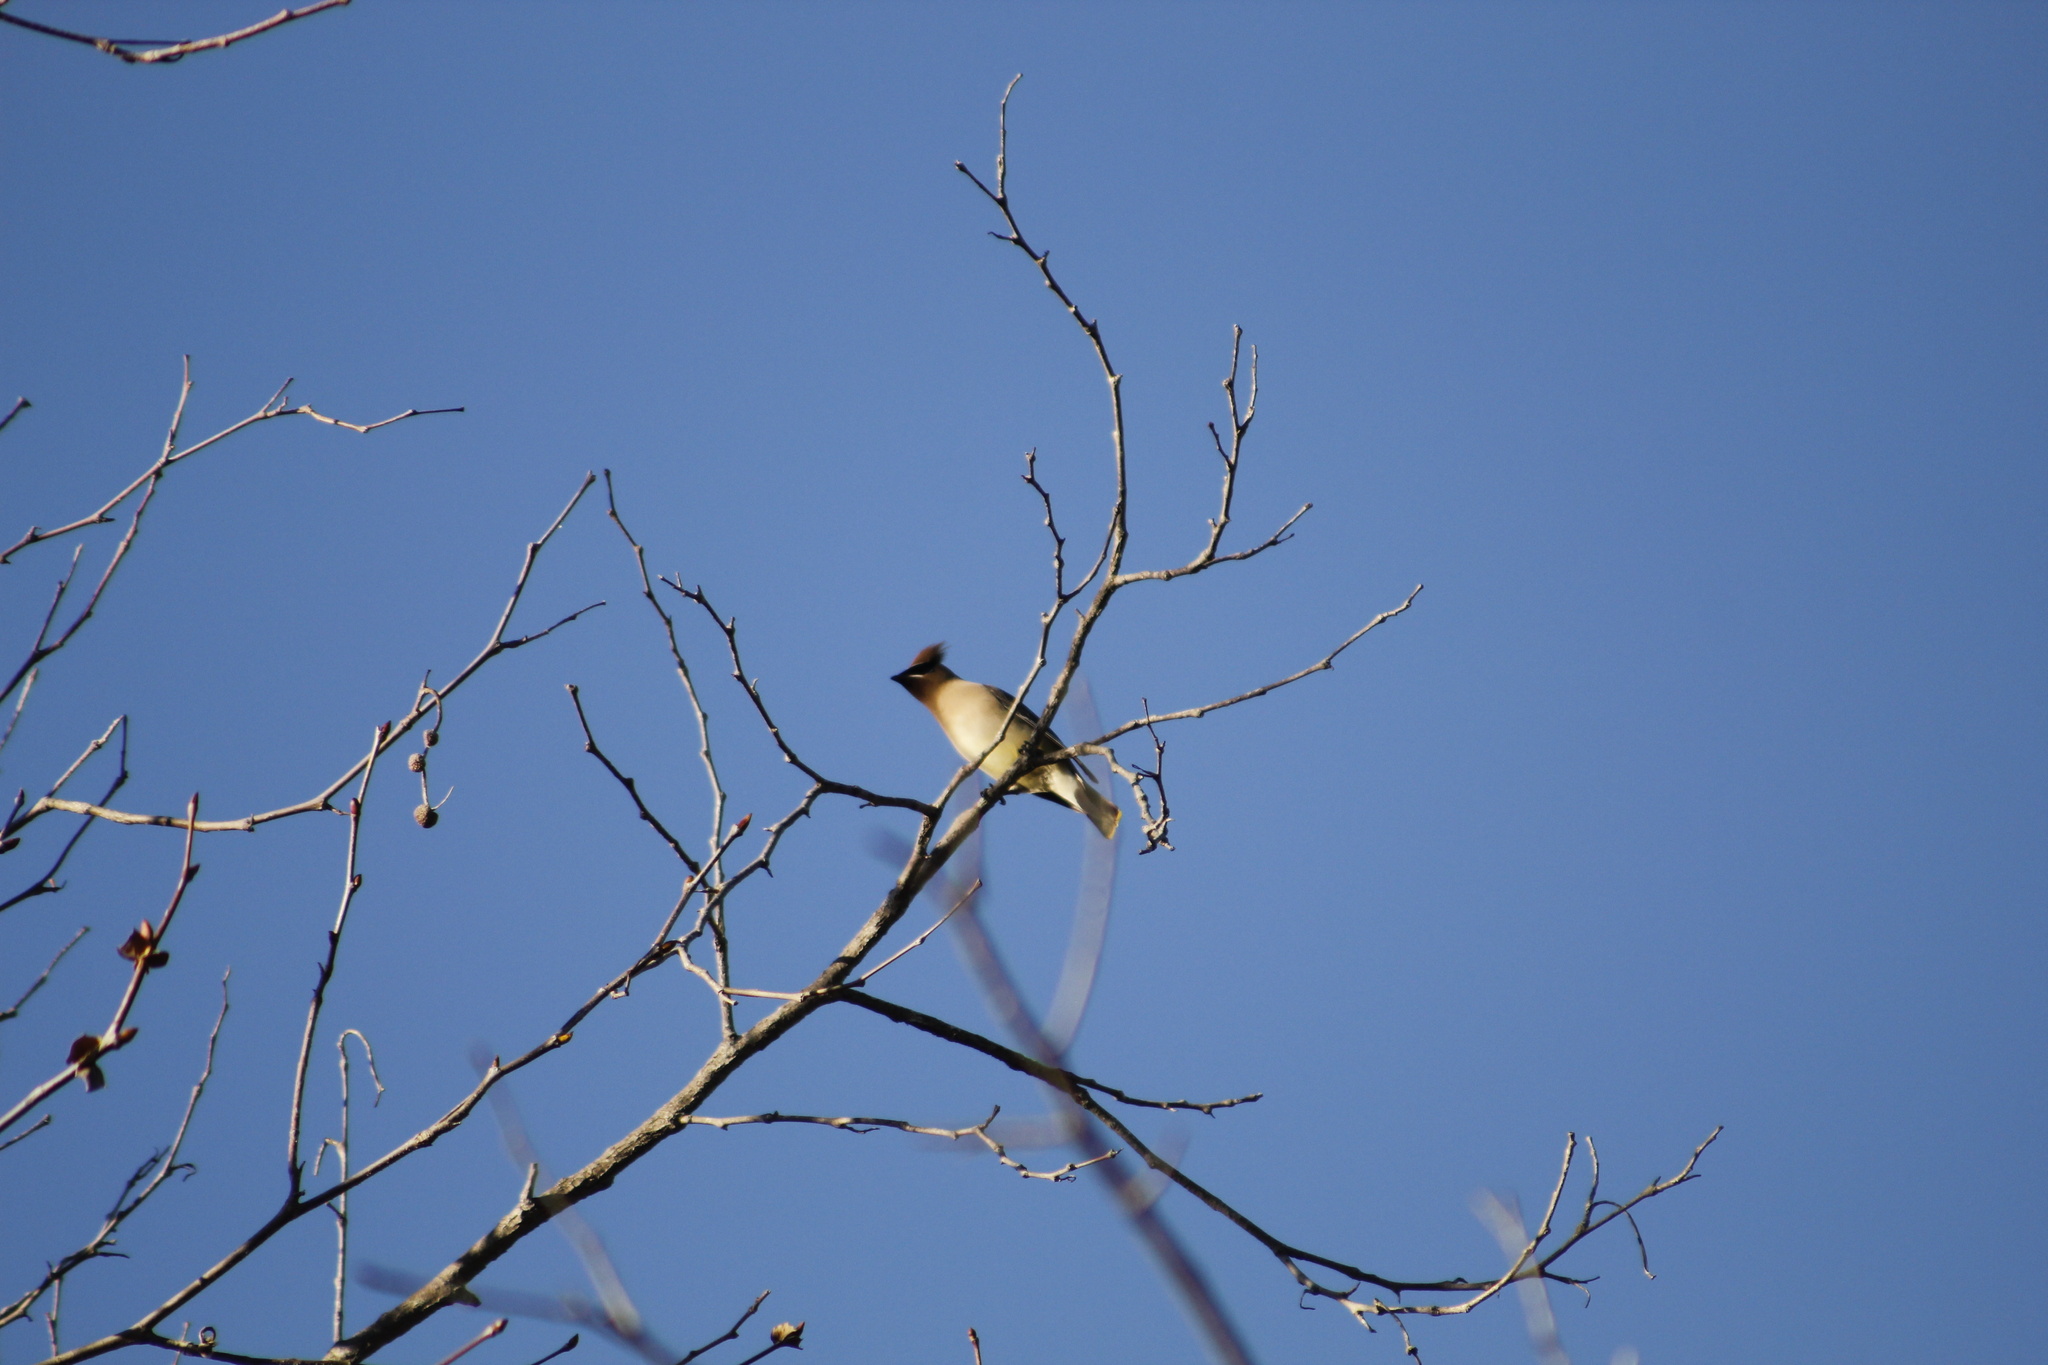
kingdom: Animalia
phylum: Chordata
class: Aves
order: Passeriformes
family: Bombycillidae
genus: Bombycilla
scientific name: Bombycilla cedrorum
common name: Cedar waxwing
